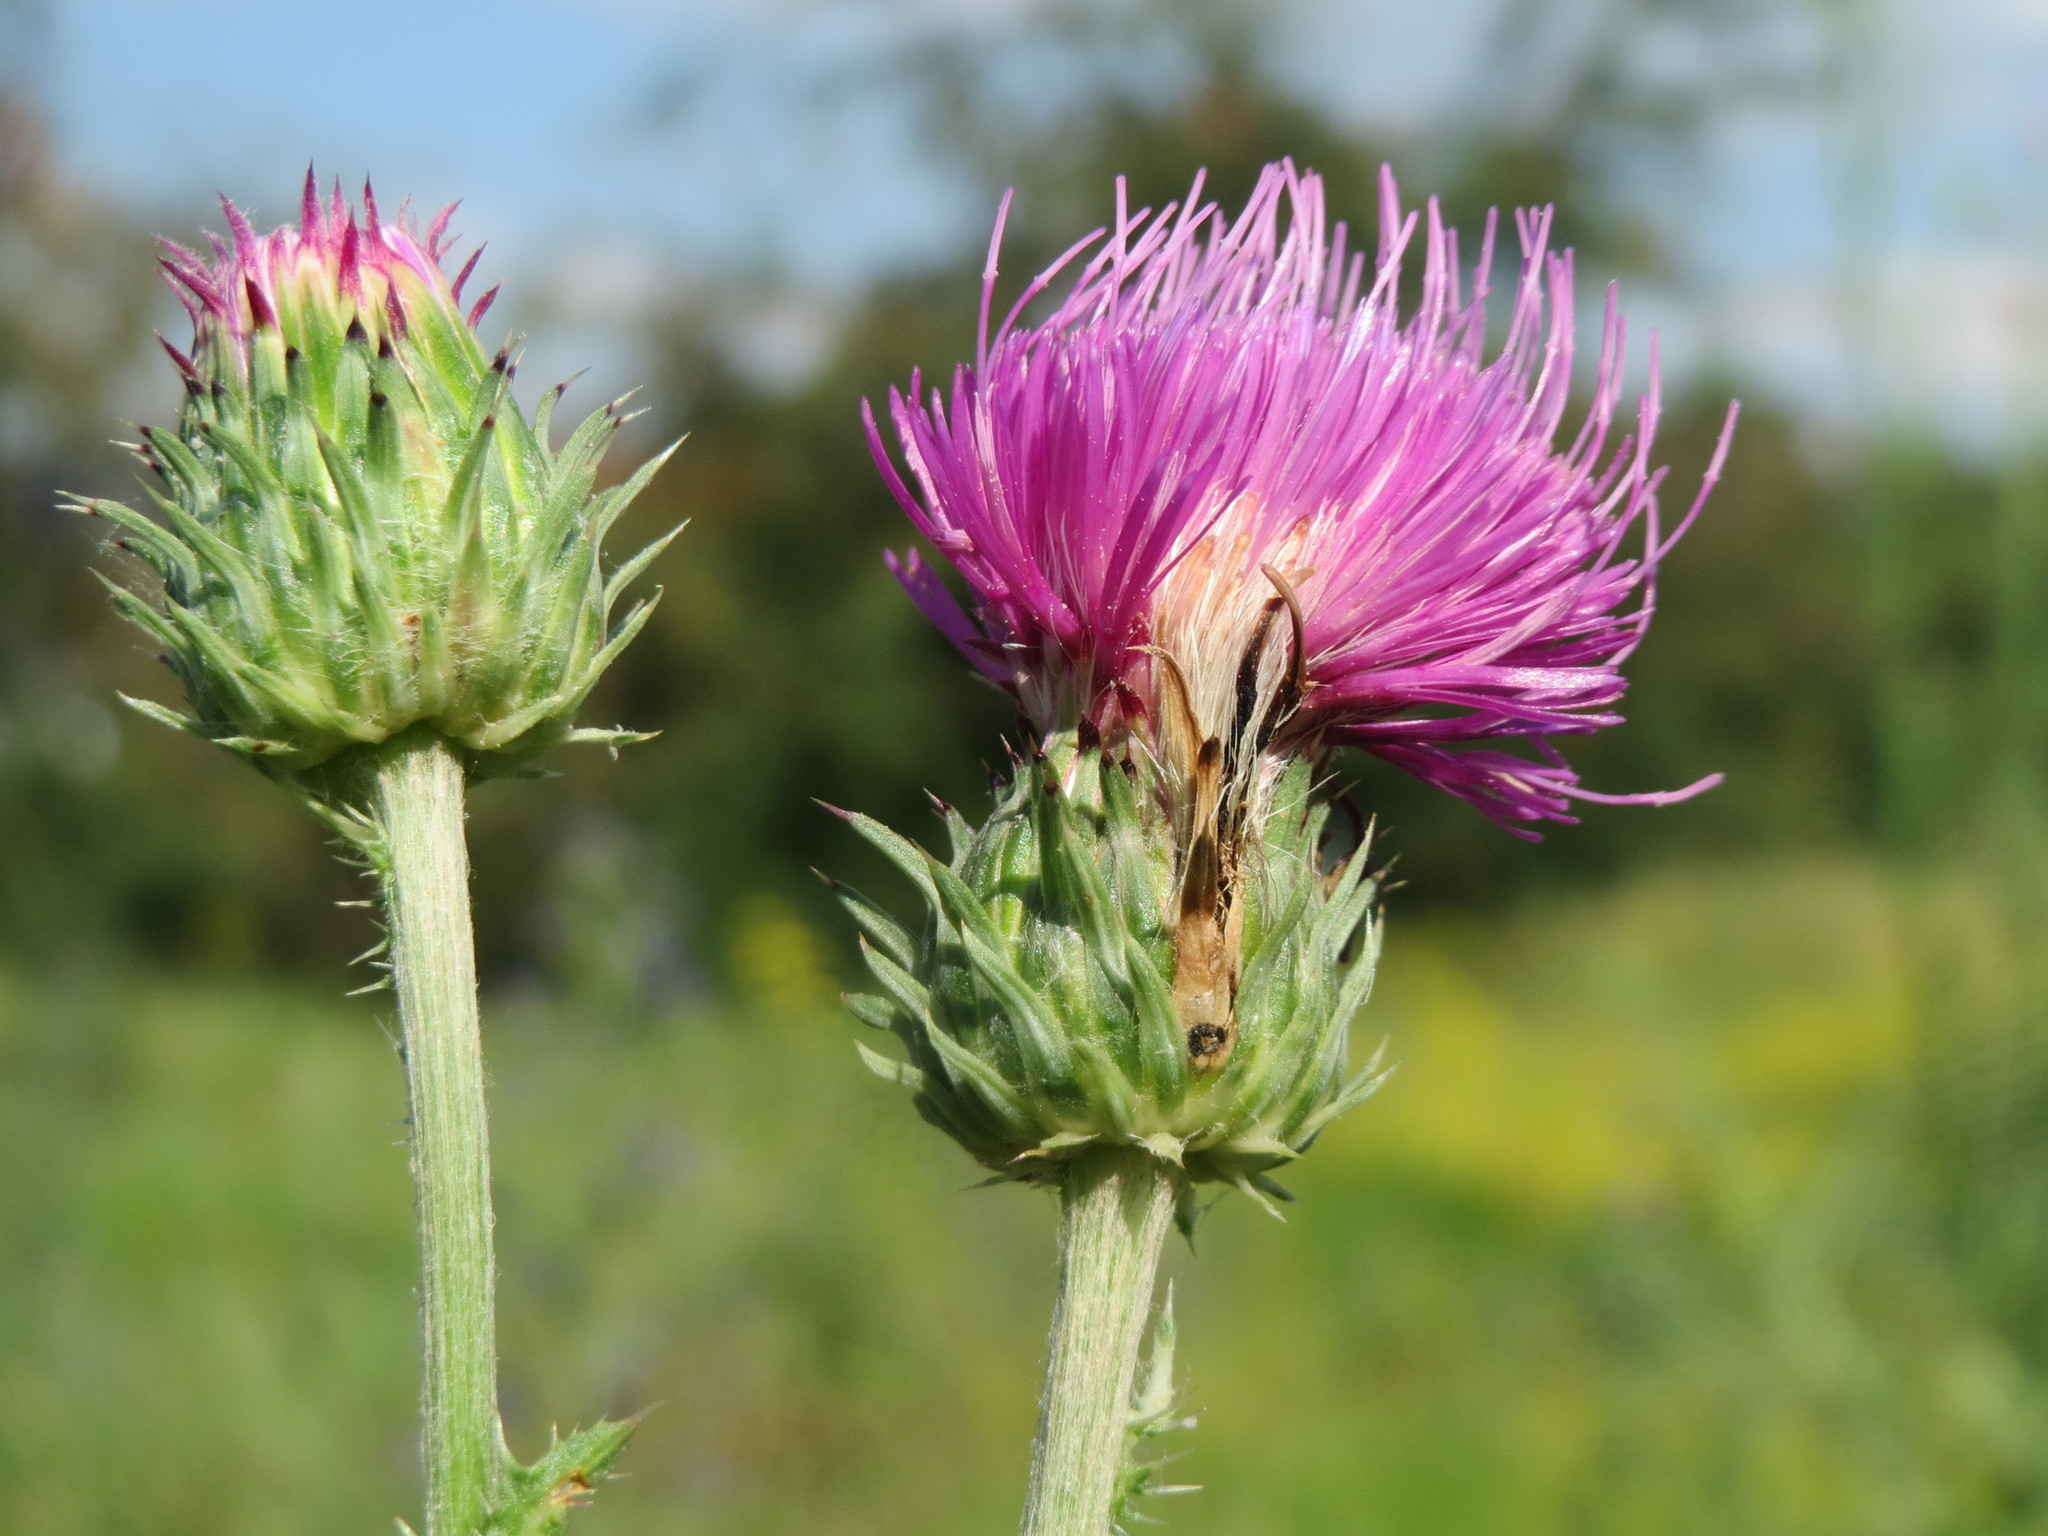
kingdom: Plantae
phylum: Tracheophyta
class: Magnoliopsida
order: Asterales
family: Asteraceae
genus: Carduus
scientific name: Carduus acanthoides
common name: Plumeless thistle
